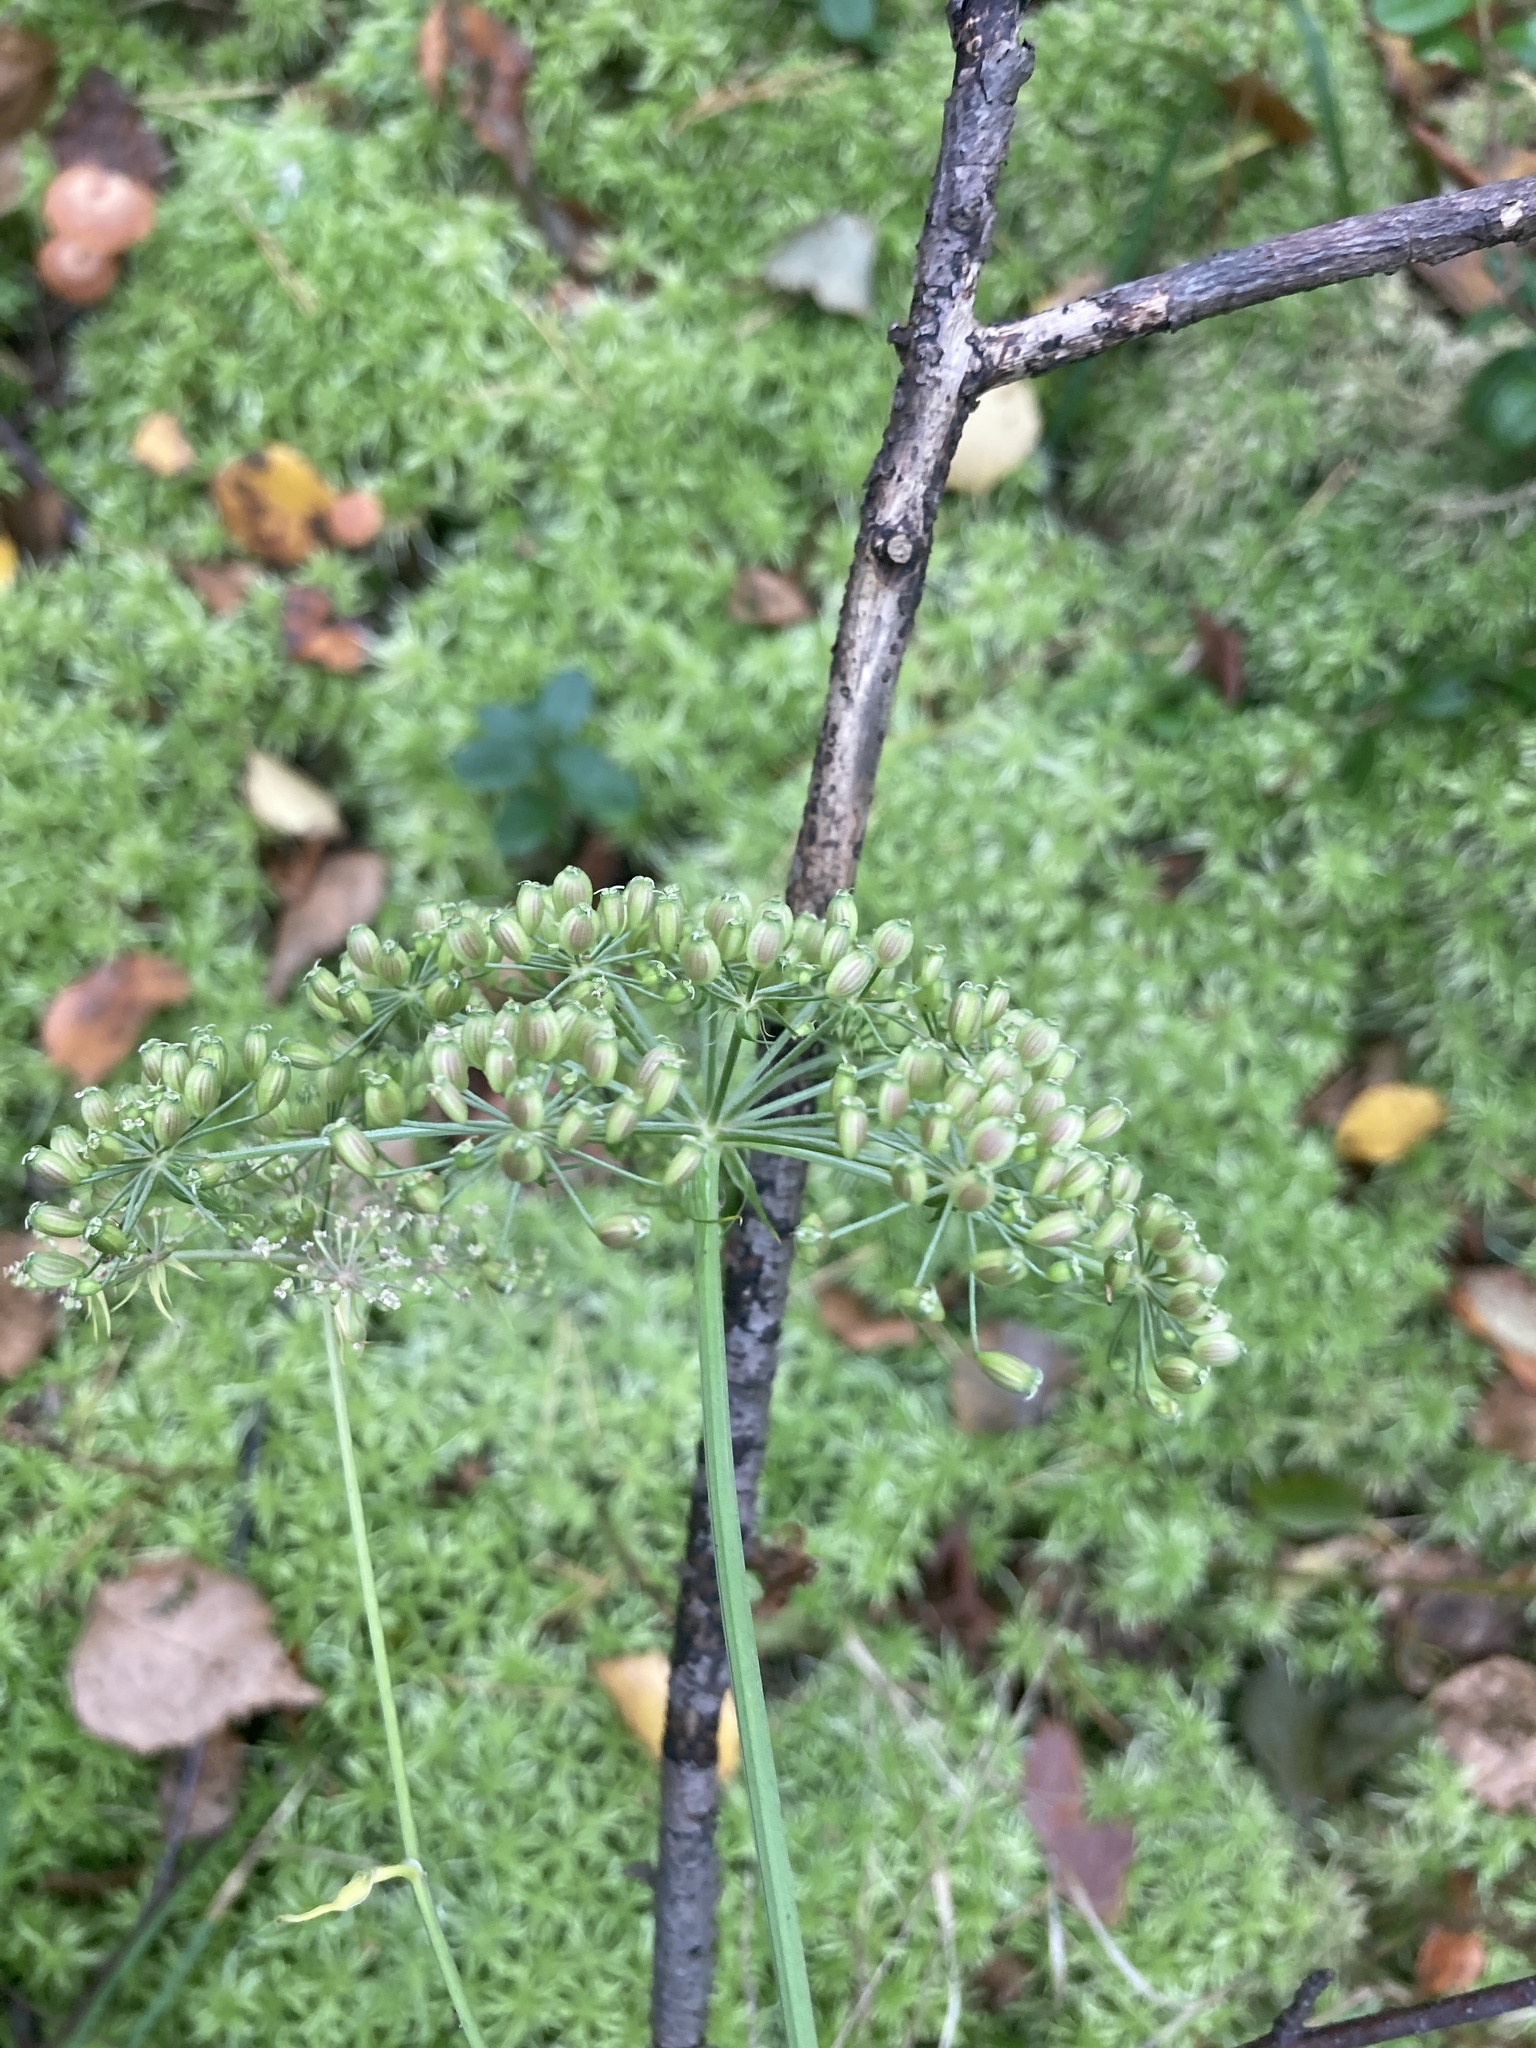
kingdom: Plantae
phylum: Tracheophyta
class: Magnoliopsida
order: Apiales
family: Apiaceae
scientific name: Apiaceae
